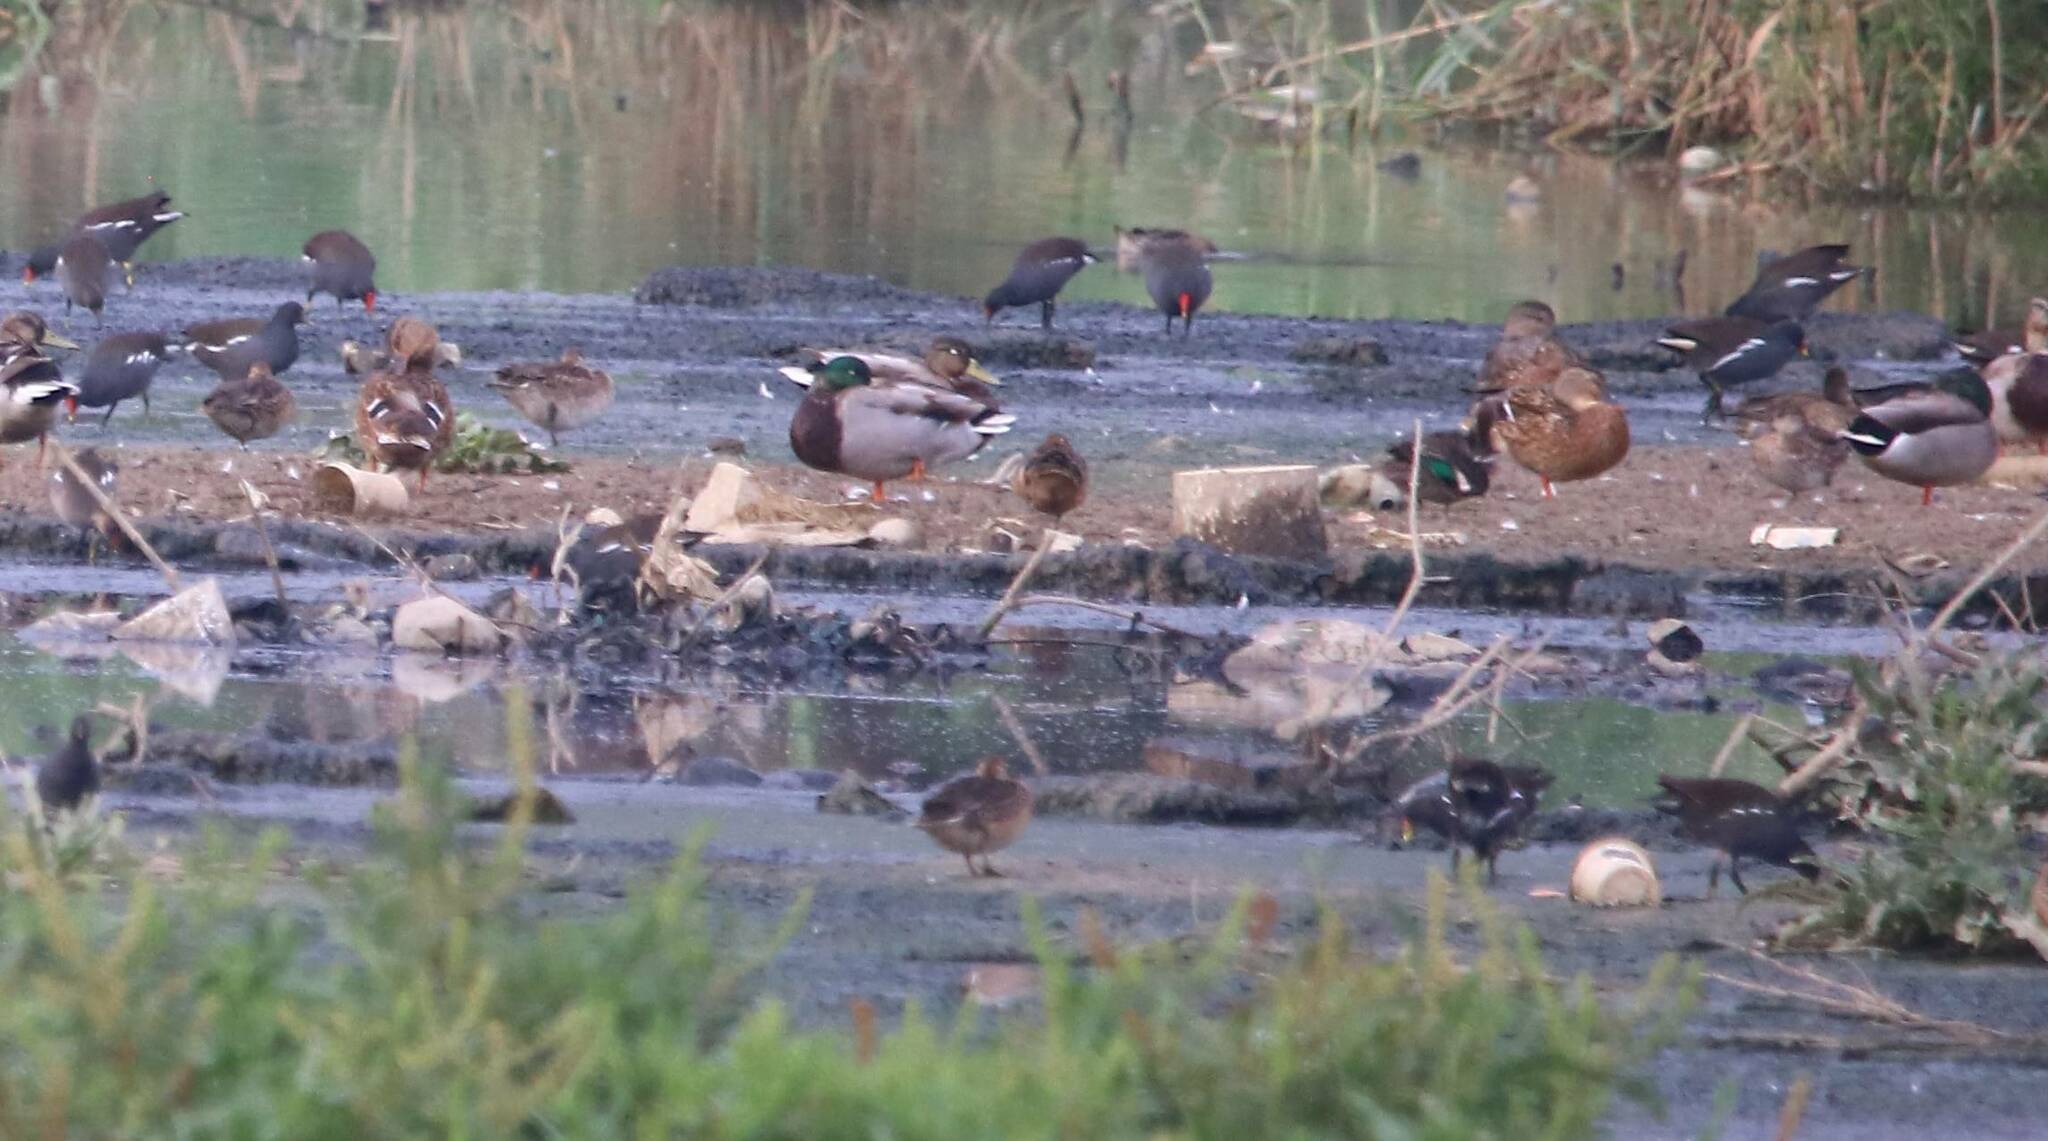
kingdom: Animalia
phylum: Chordata
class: Aves
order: Anseriformes
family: Anatidae
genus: Anas
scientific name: Anas platyrhynchos
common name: Mallard
